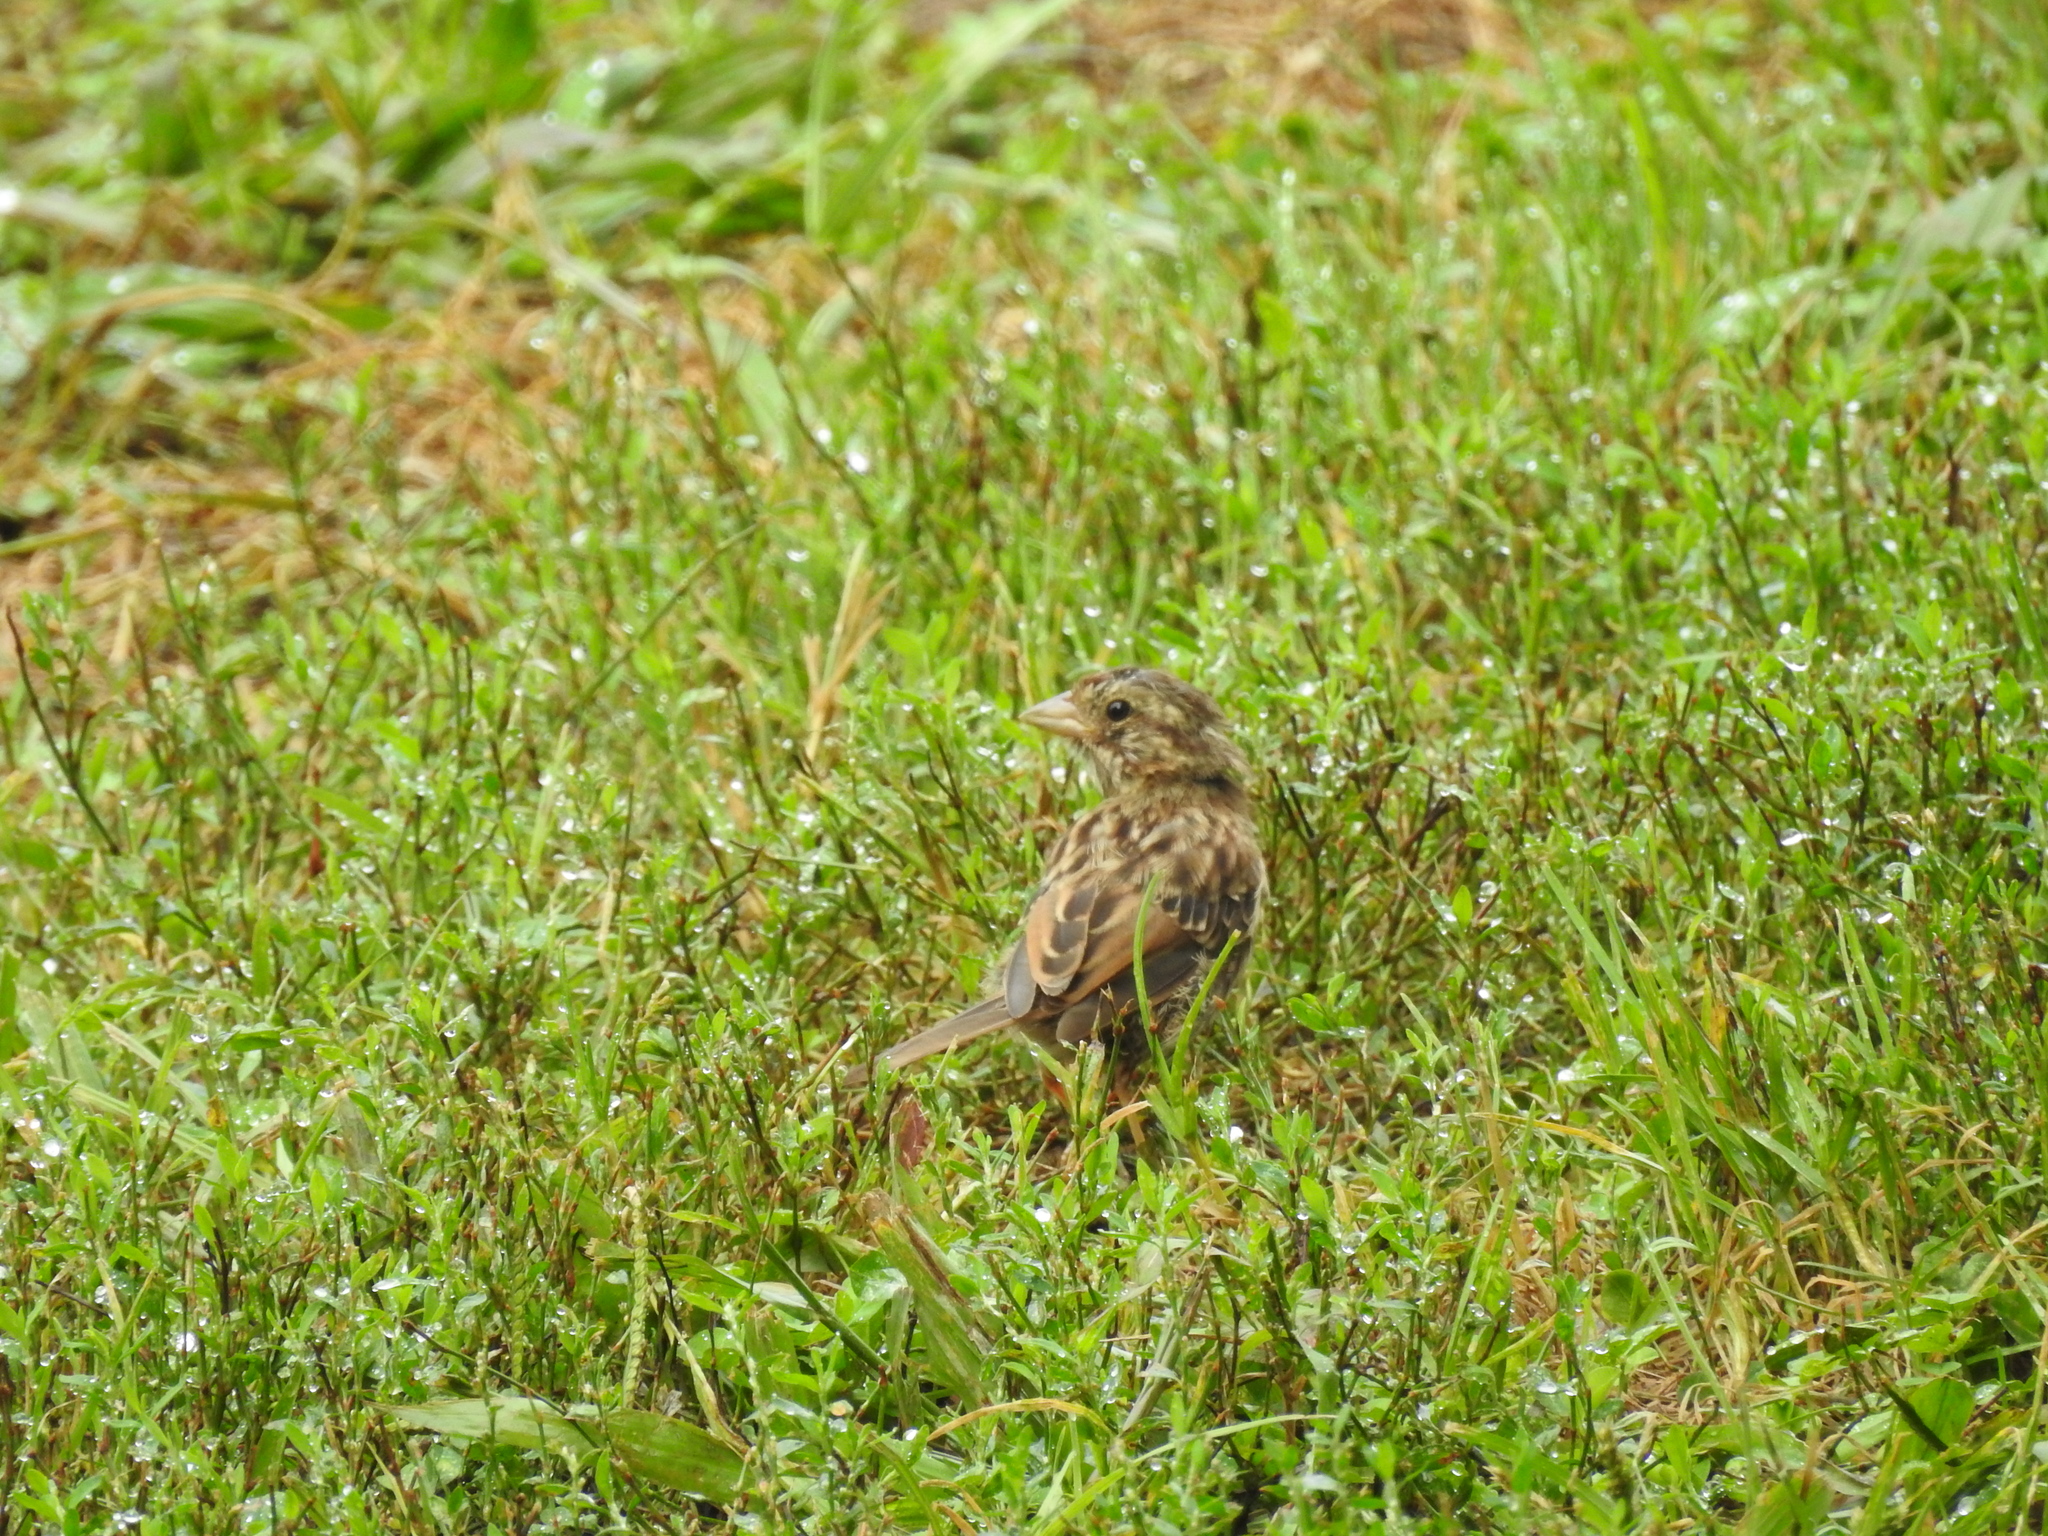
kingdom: Animalia
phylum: Chordata
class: Aves
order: Passeriformes
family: Passerellidae
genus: Melospiza
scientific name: Melospiza melodia
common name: Song sparrow
